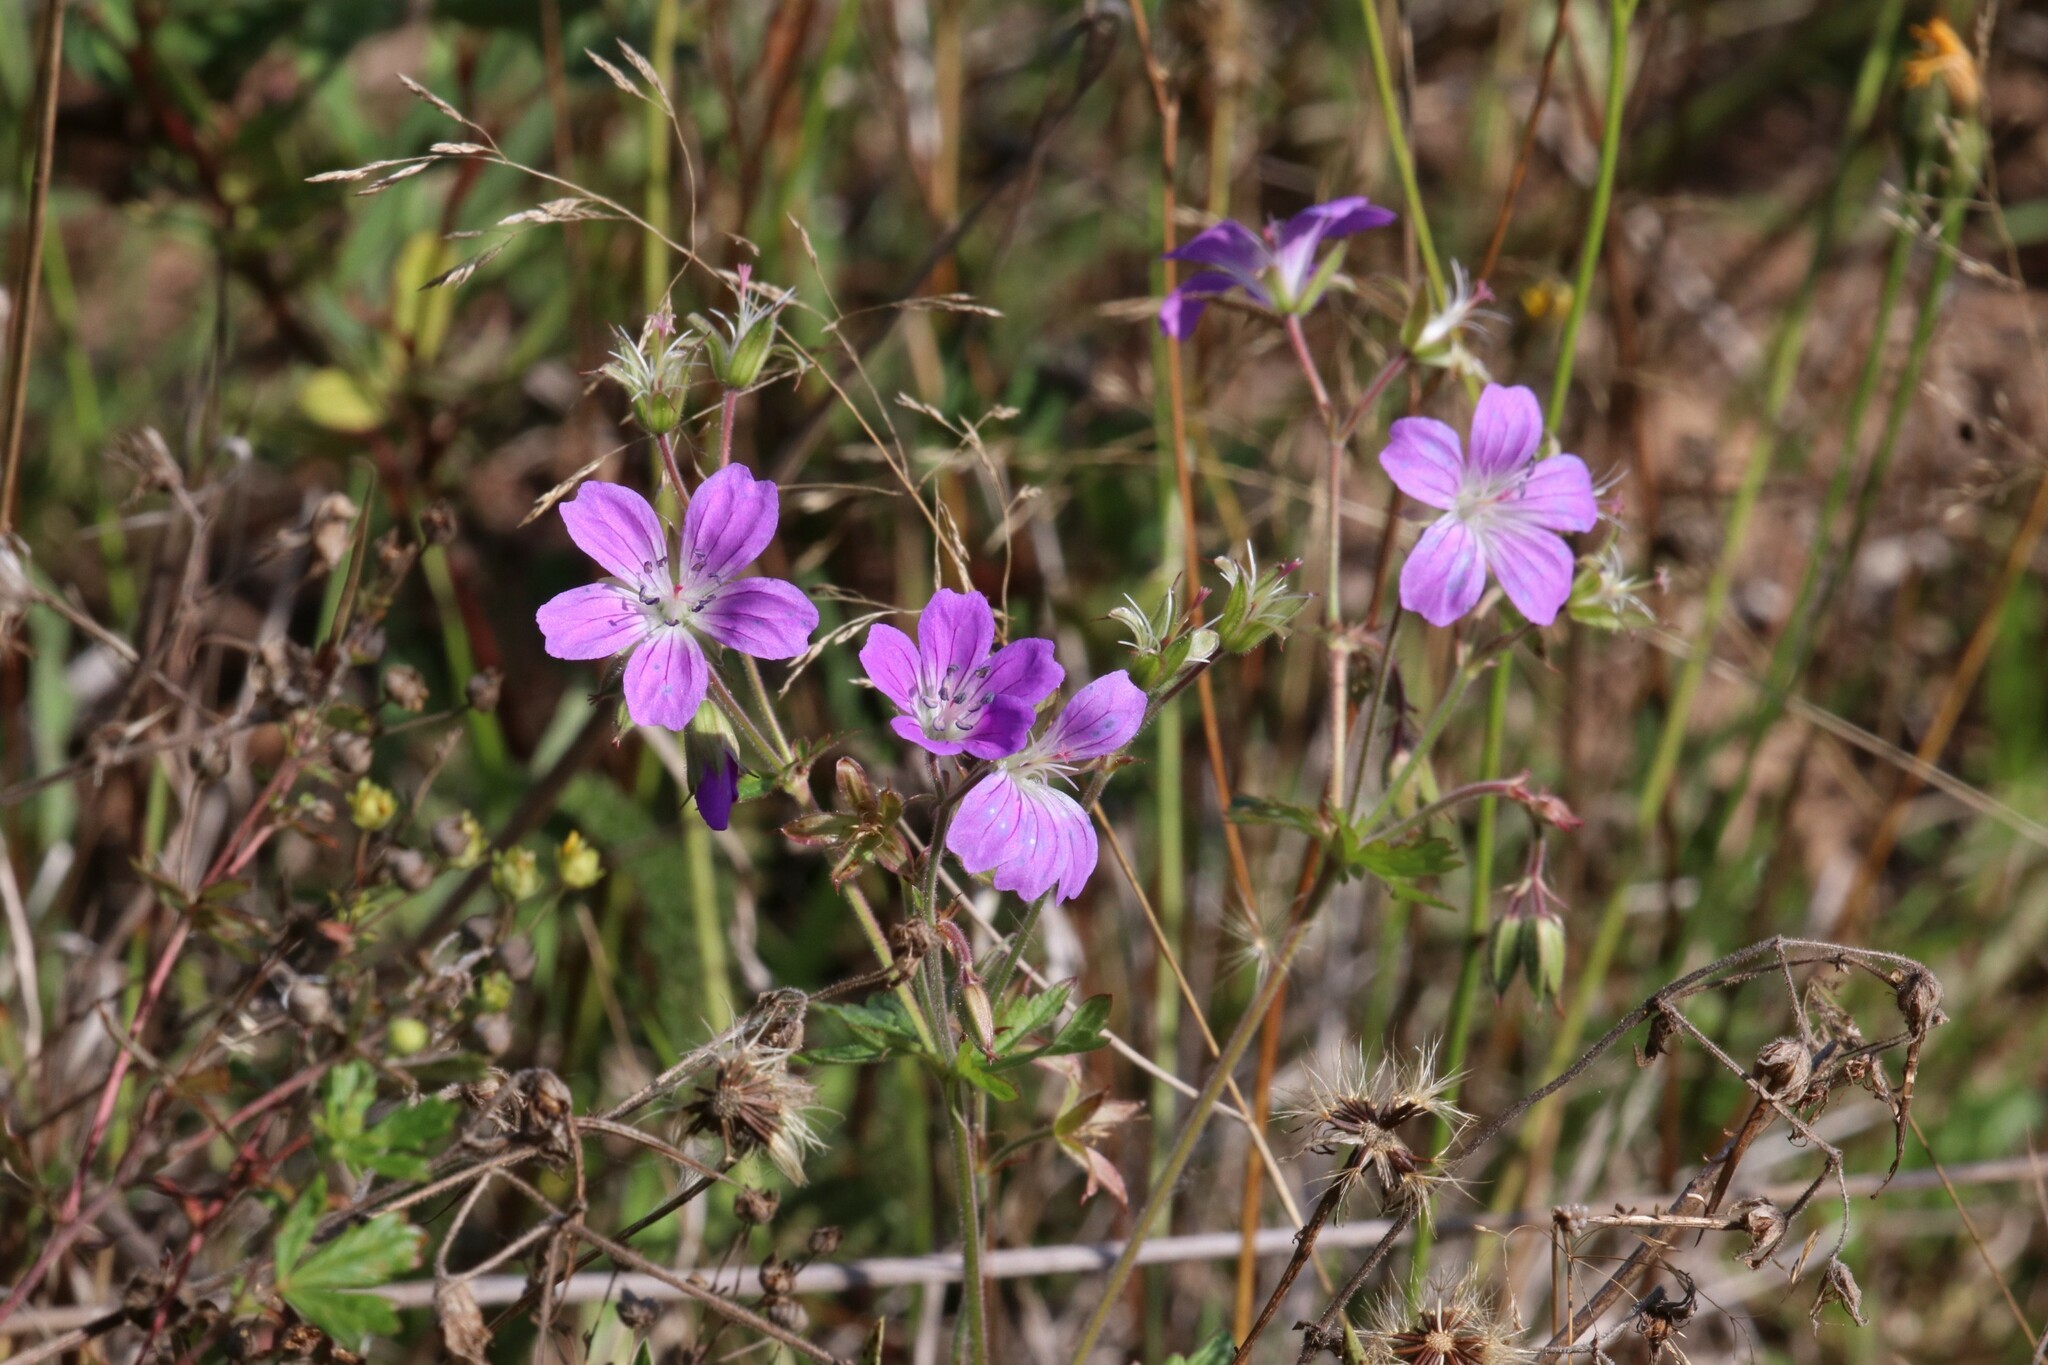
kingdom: Plantae
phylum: Tracheophyta
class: Magnoliopsida
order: Geraniales
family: Geraniaceae
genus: Geranium
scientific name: Geranium sylvaticum
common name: Wood crane's-bill
